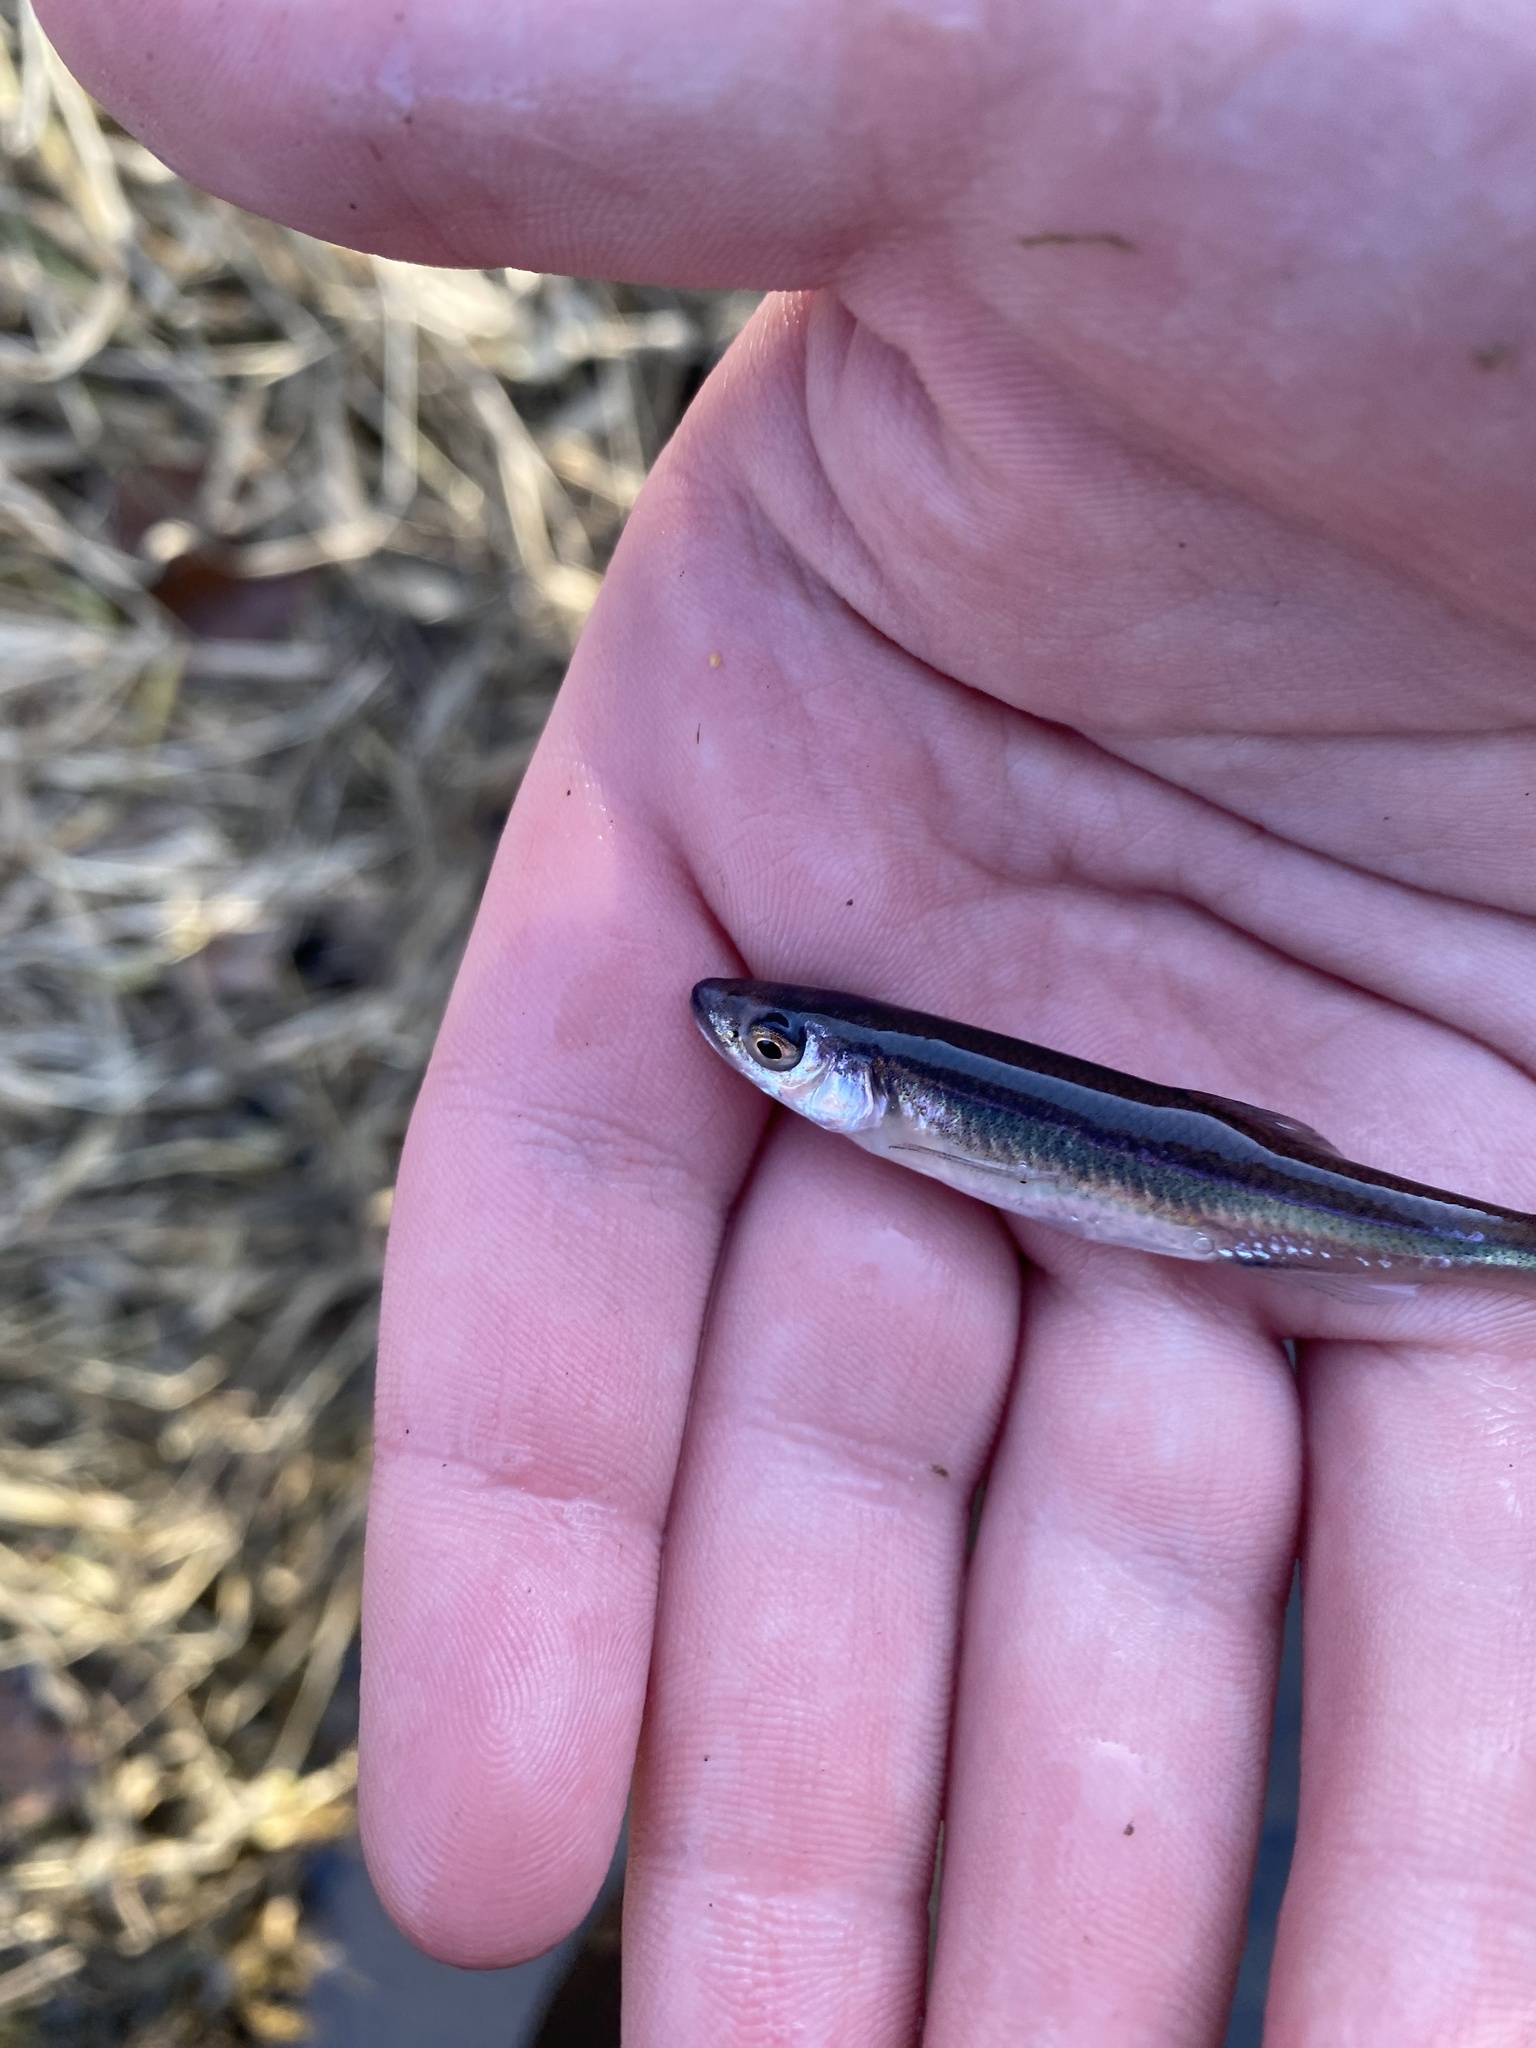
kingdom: Animalia
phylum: Chordata
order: Cypriniformes
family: Cyprinidae
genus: Notropis
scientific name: Notropis percobromus
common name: Carmine shiner
